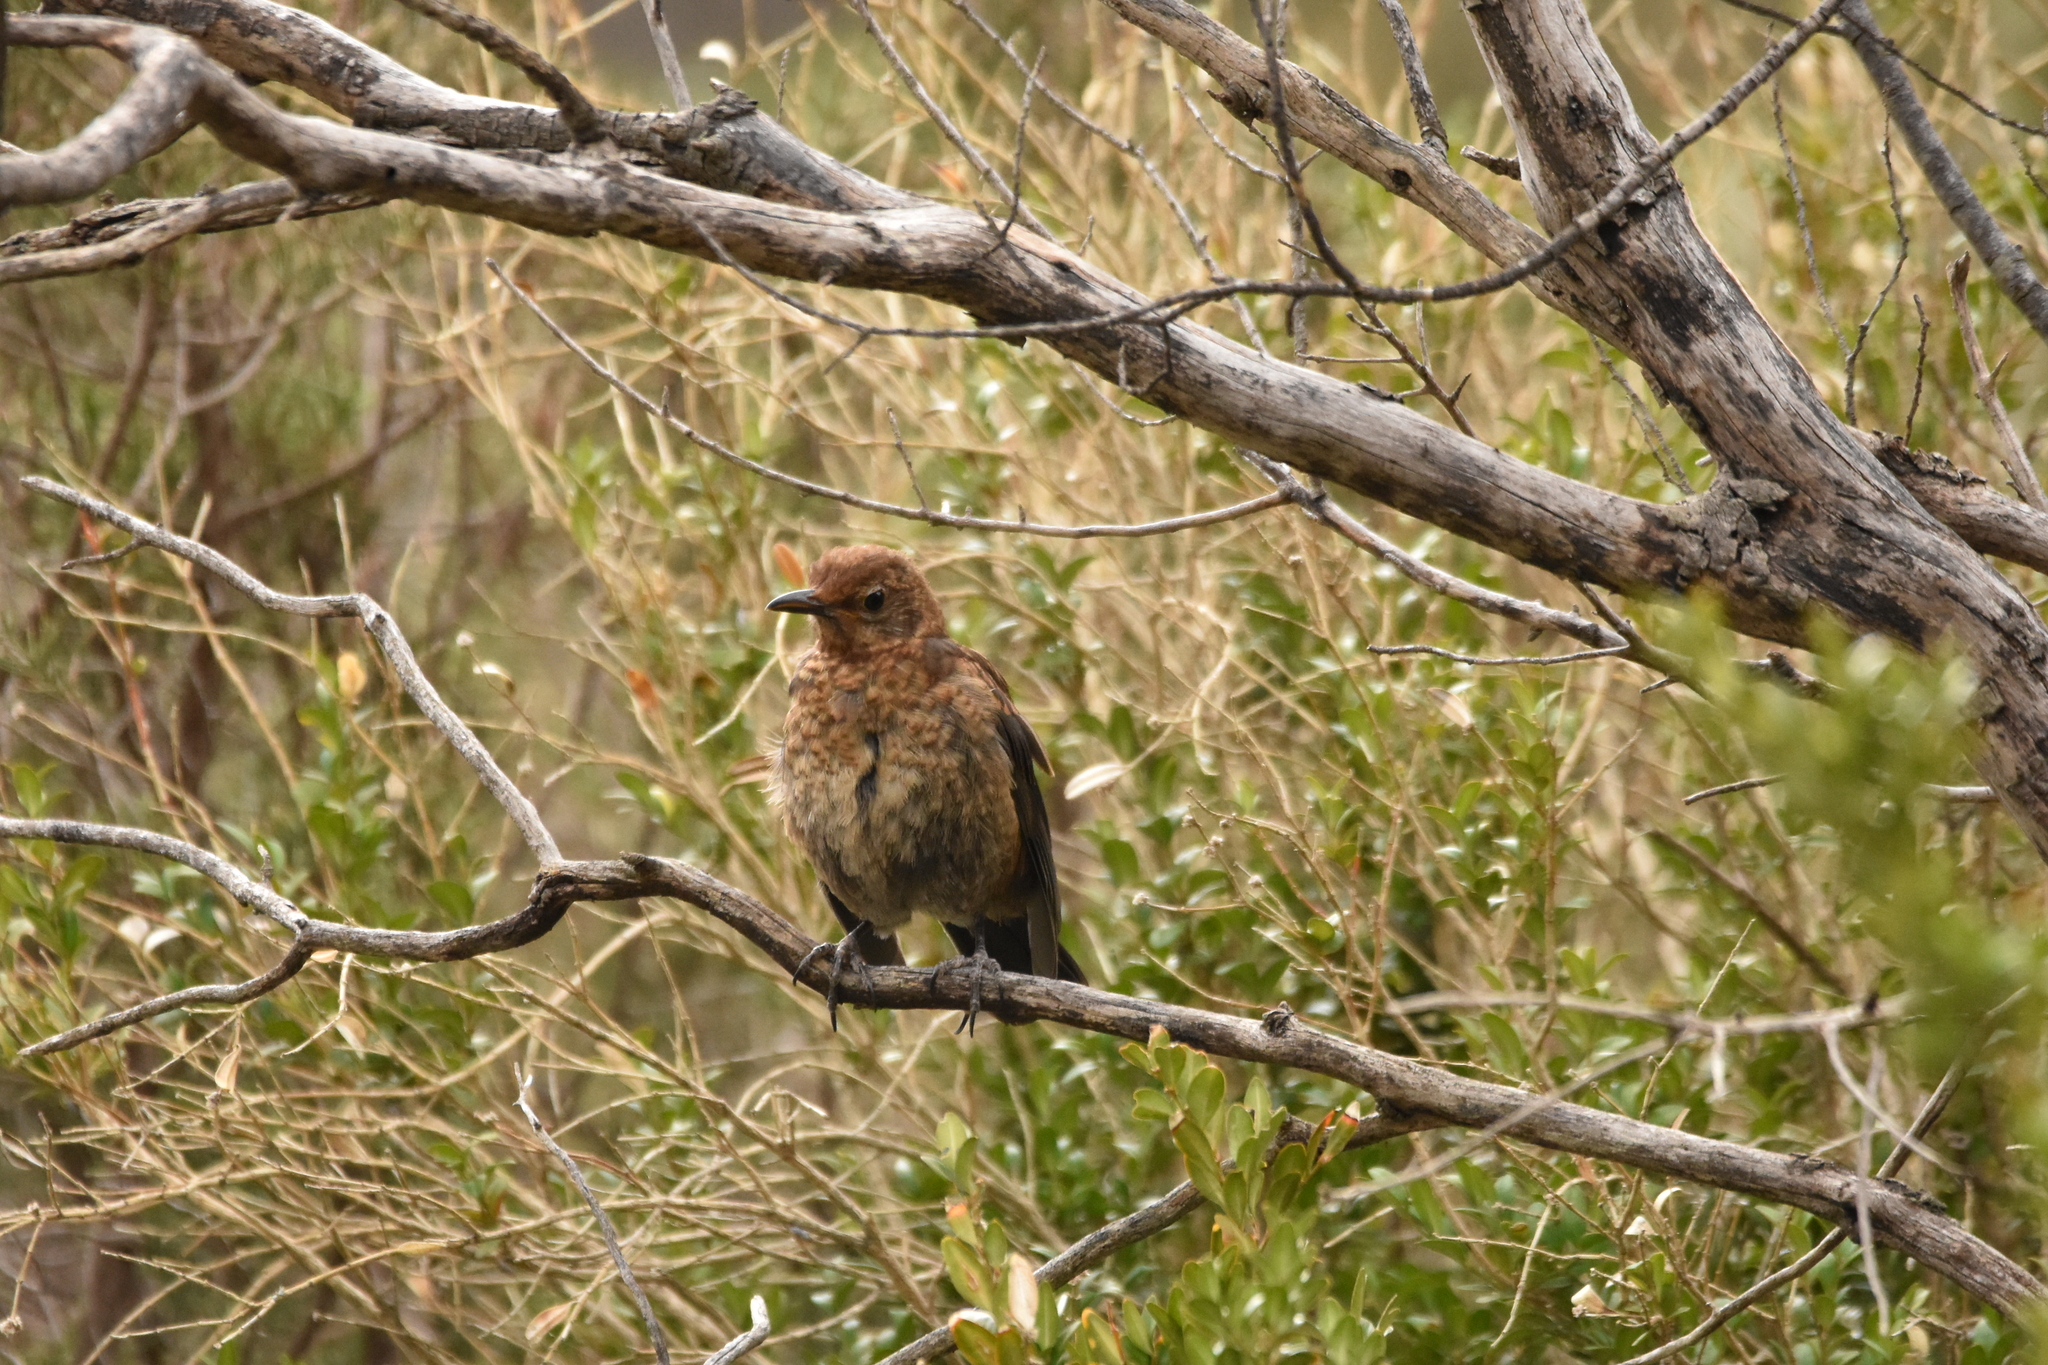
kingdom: Animalia
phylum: Chordata
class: Aves
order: Passeriformes
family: Turdidae
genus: Turdus
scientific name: Turdus merula
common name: Common blackbird
